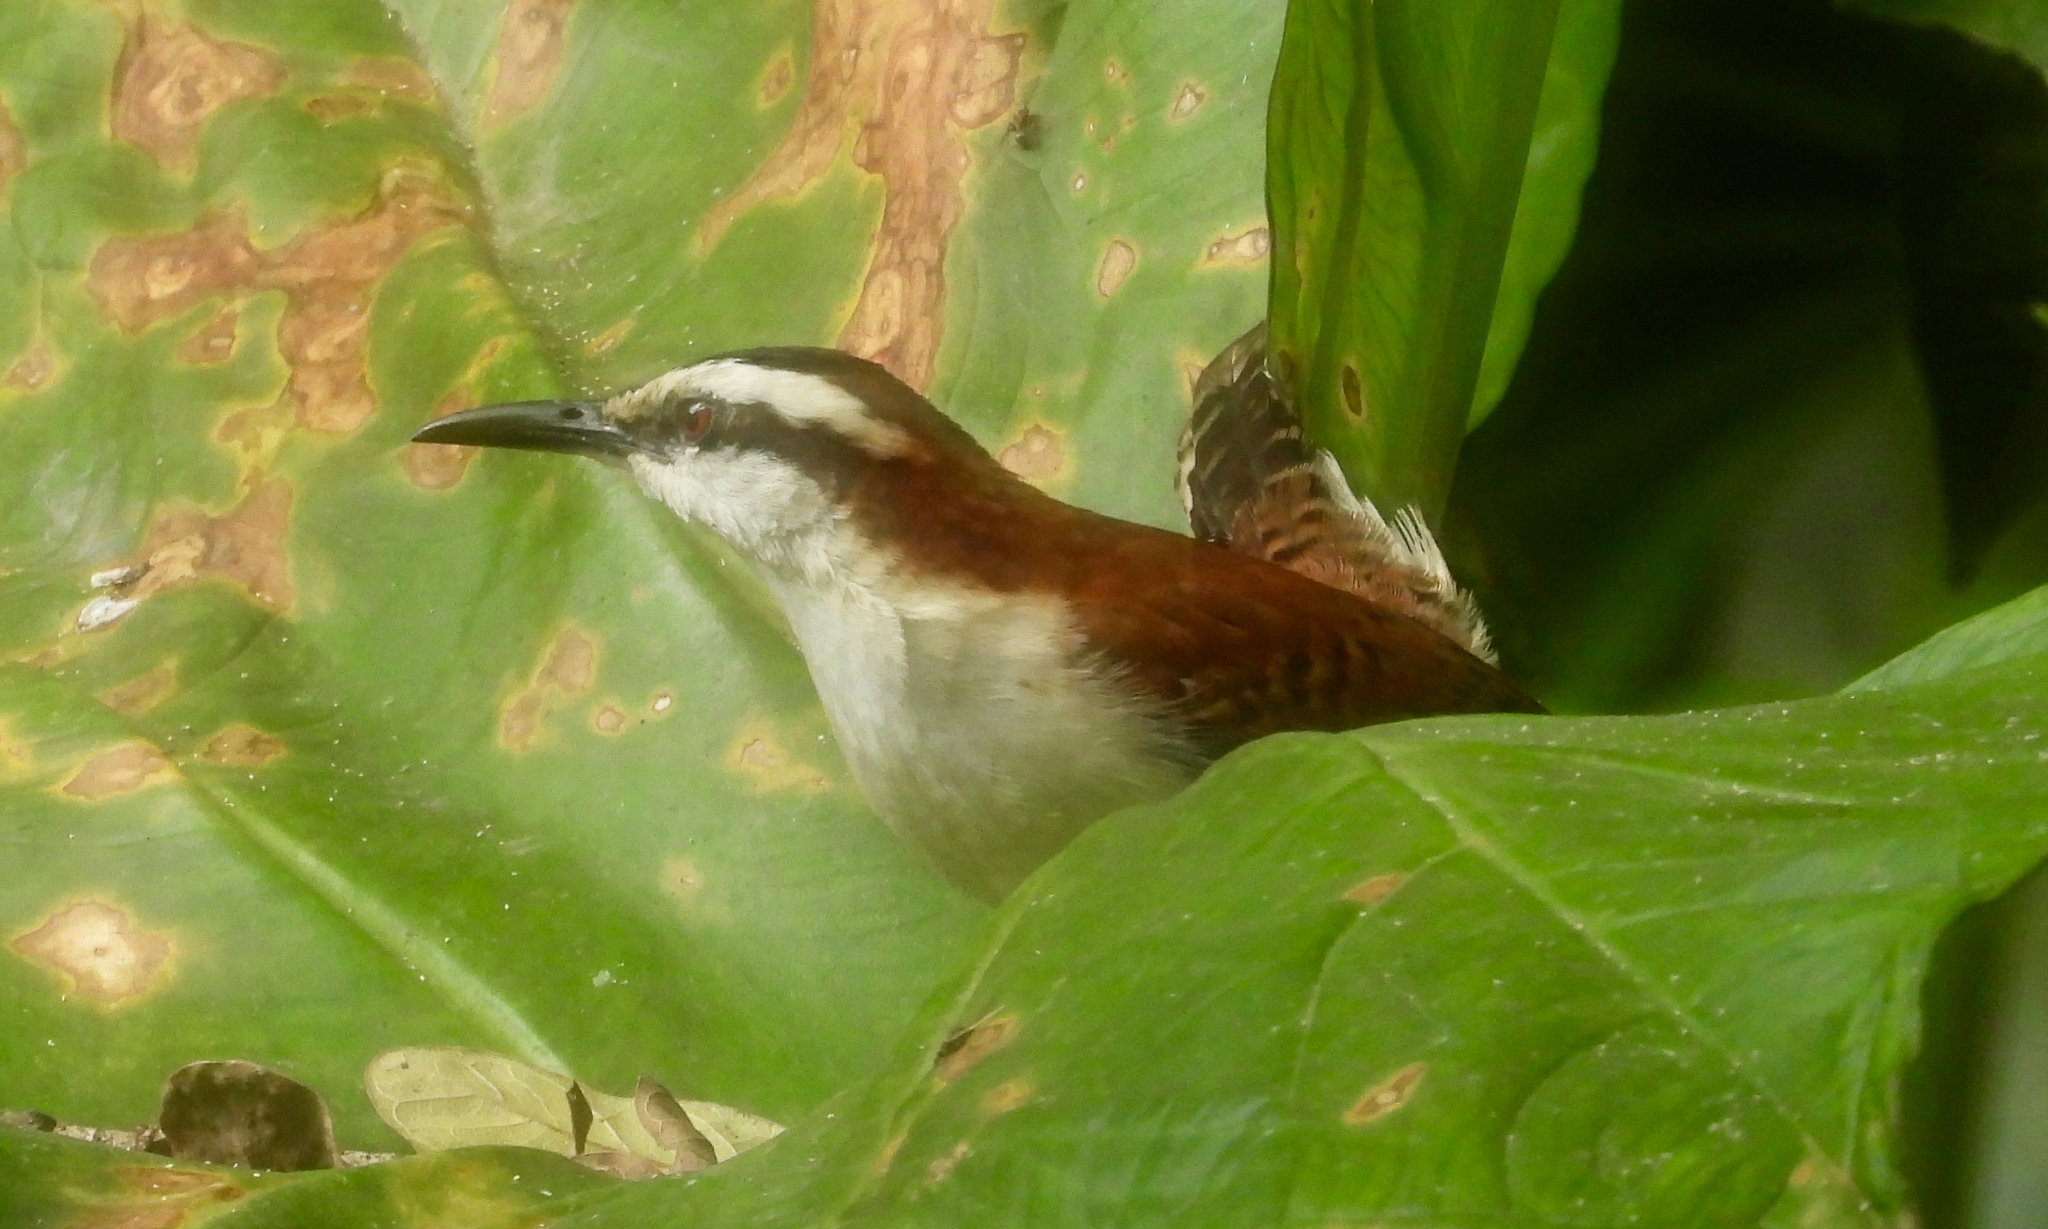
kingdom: Animalia
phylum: Chordata
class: Aves
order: Passeriformes
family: Troglodytidae
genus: Campylorhynchus
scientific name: Campylorhynchus rufinucha
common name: Rufous-naped wren
